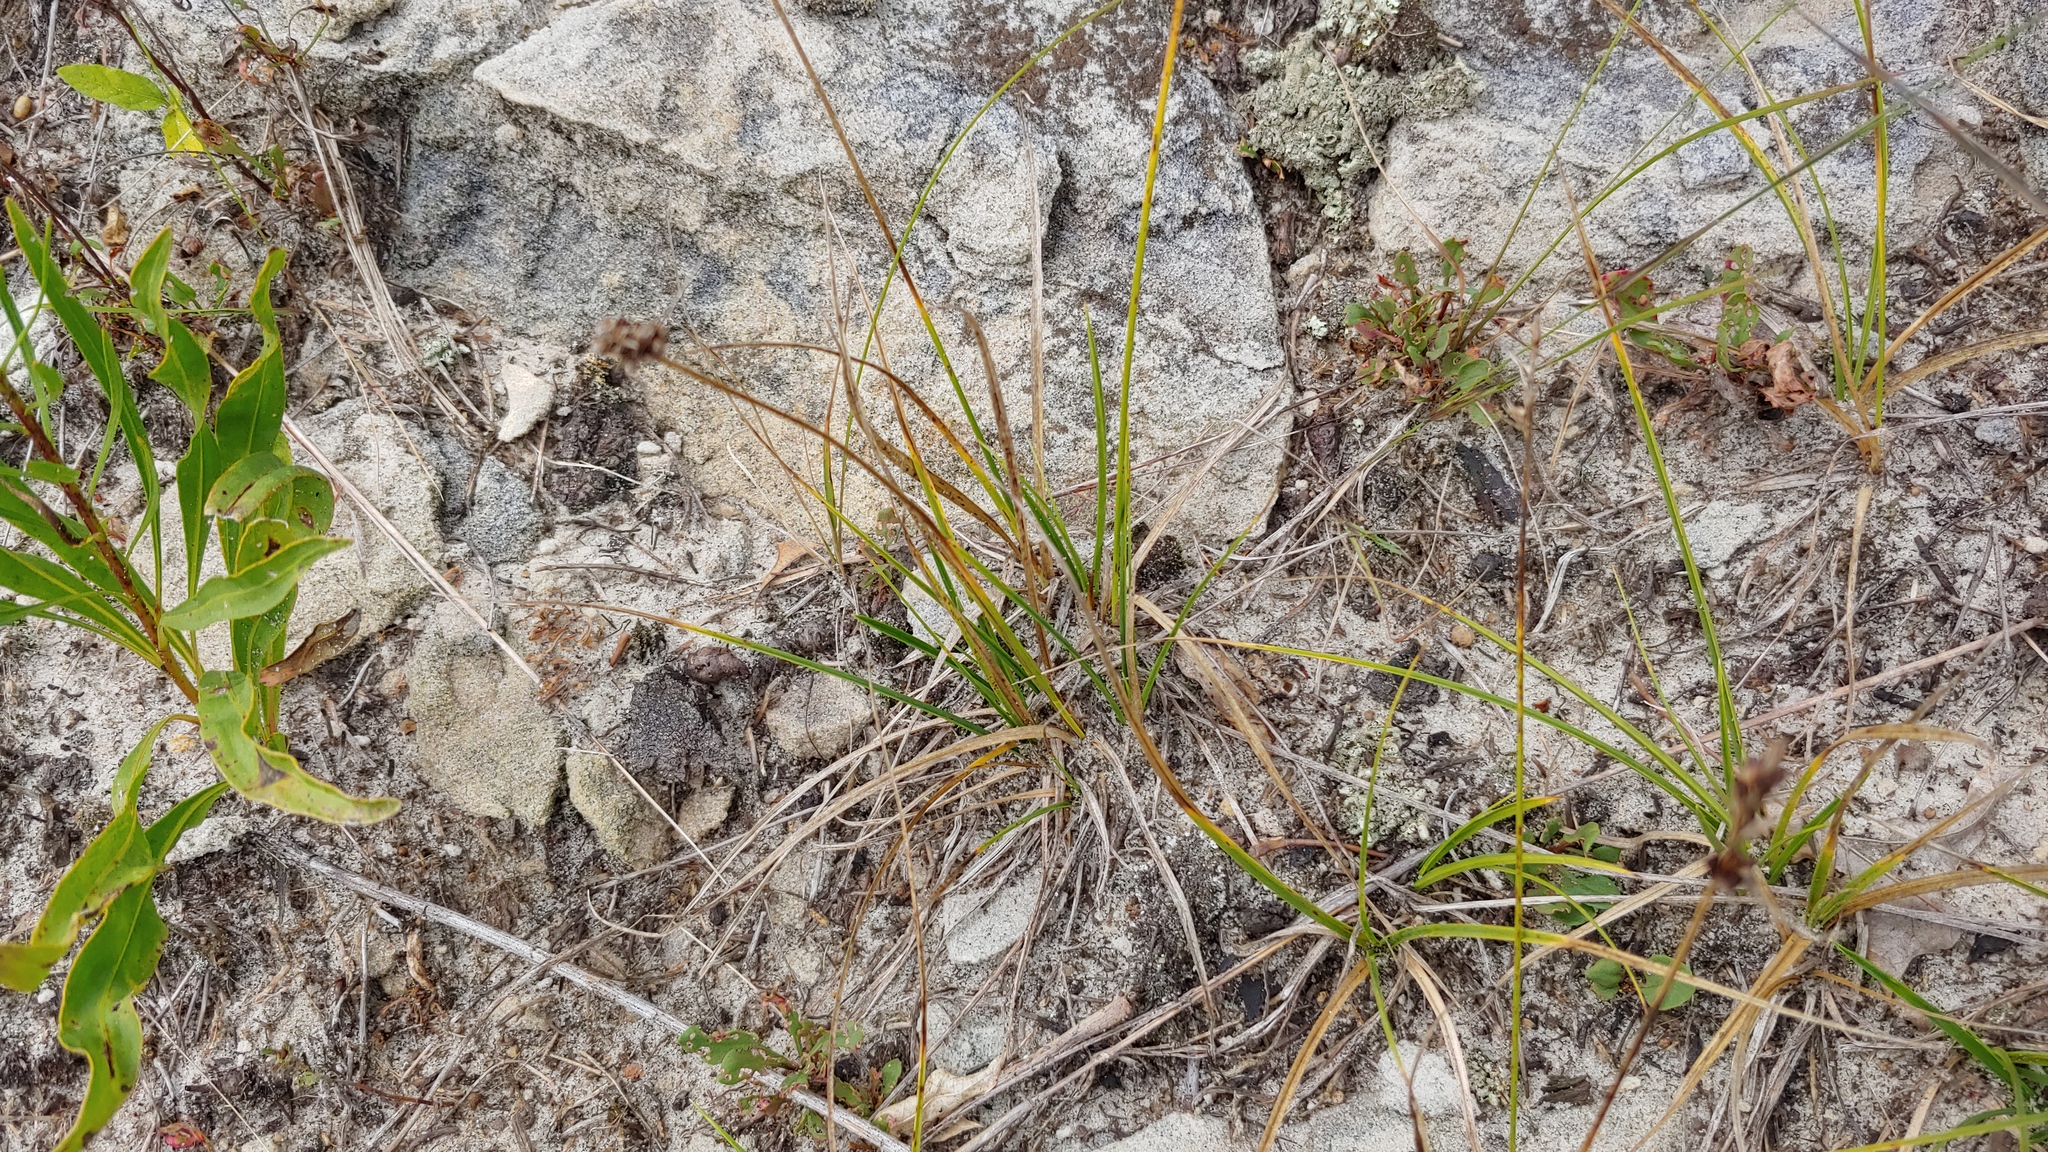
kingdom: Plantae
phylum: Tracheophyta
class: Liliopsida
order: Poales
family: Cyperaceae
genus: Carex
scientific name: Carex inops
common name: Long-stolon sedge
